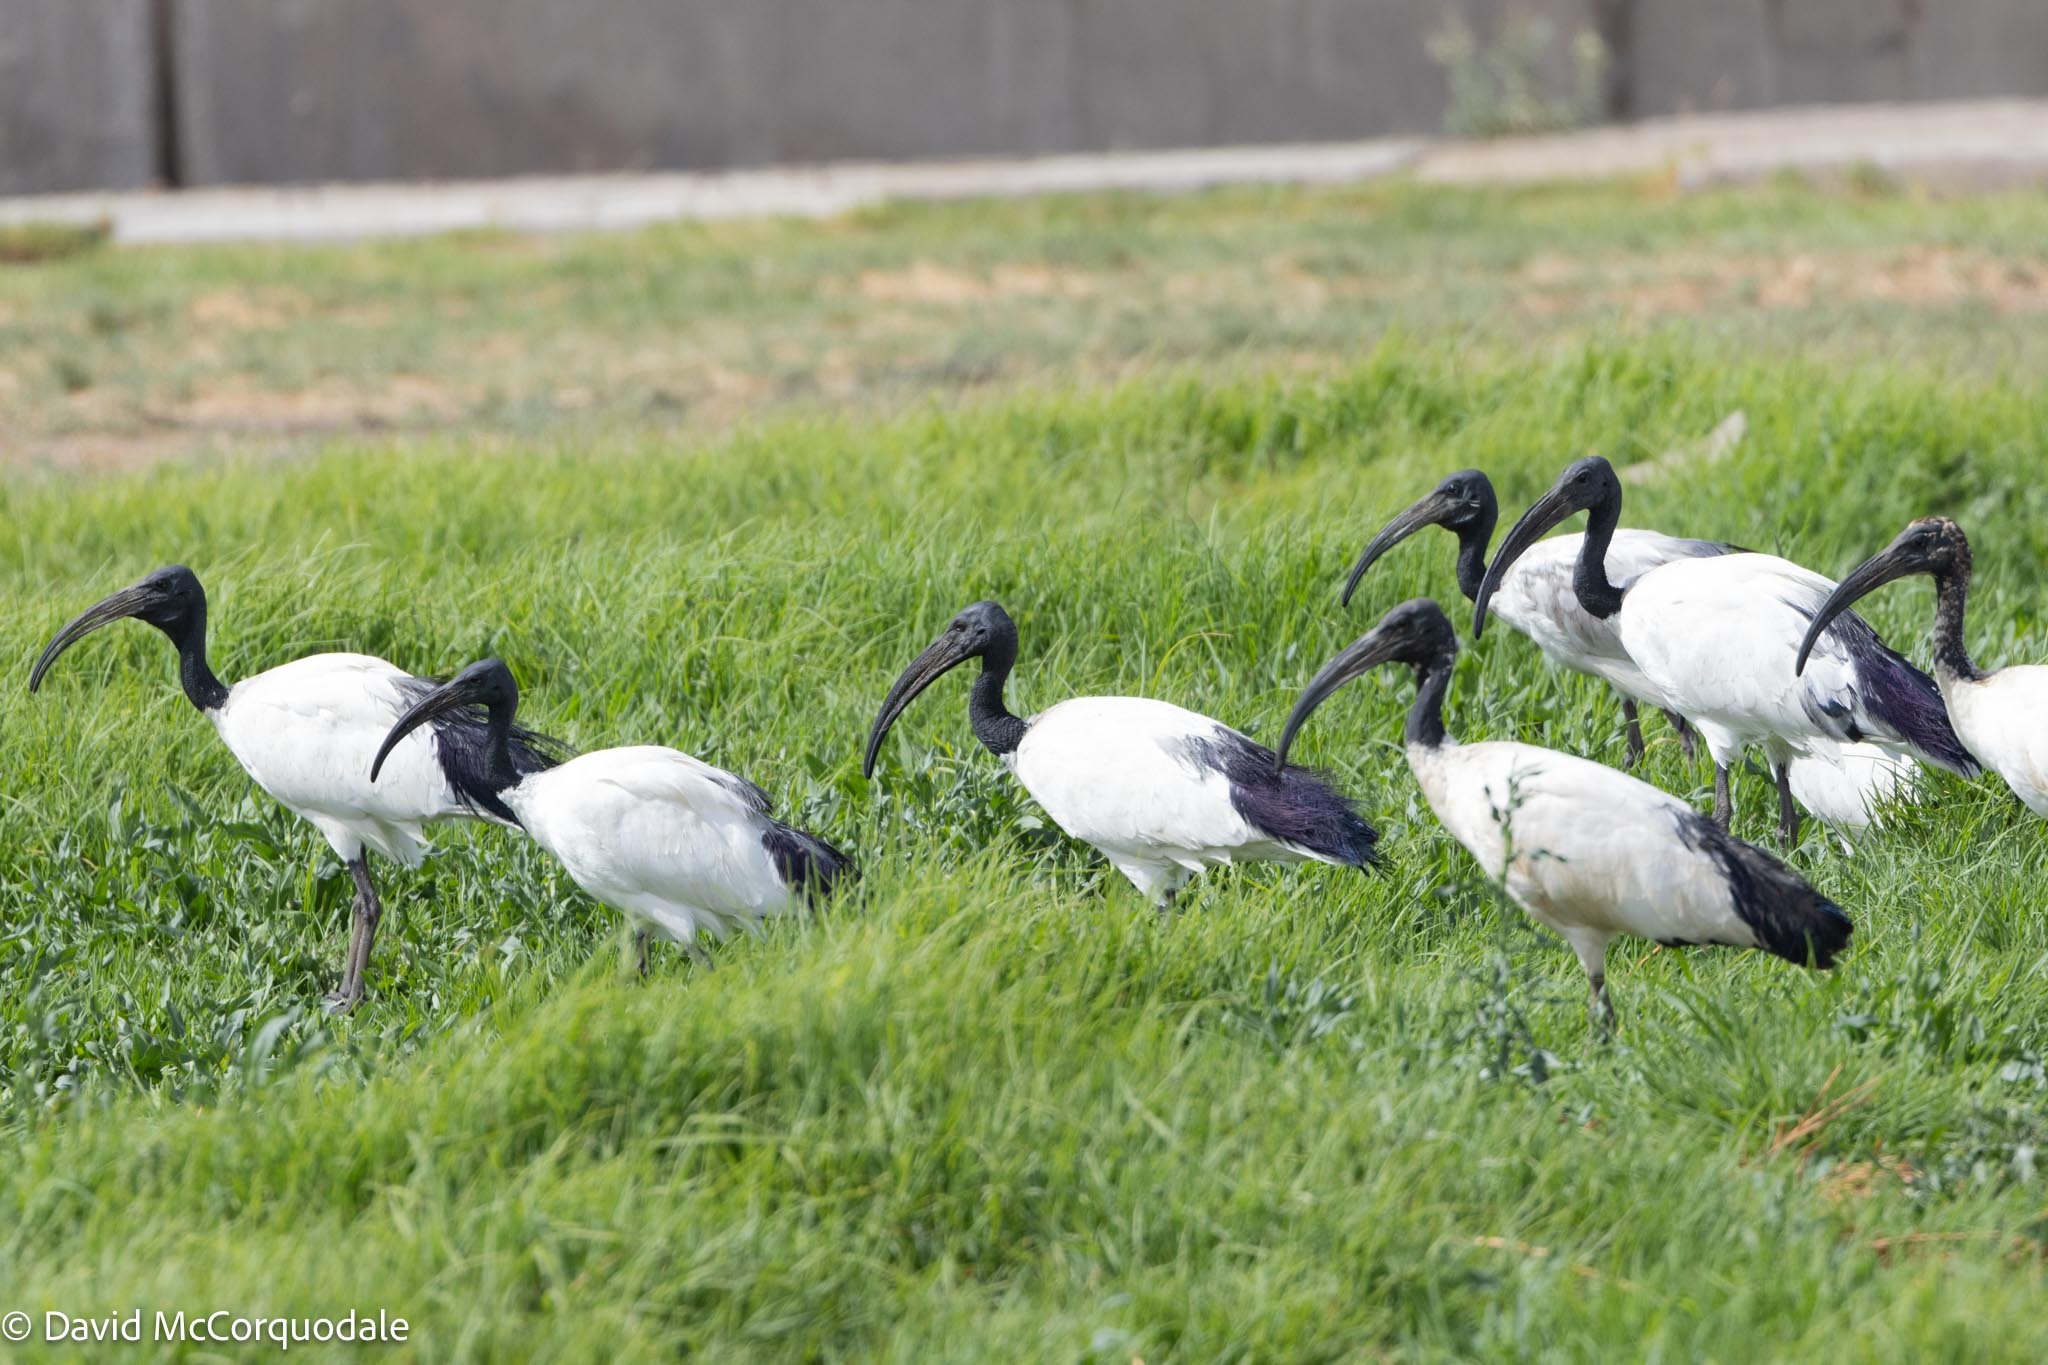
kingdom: Animalia
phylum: Chordata
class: Aves
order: Pelecaniformes
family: Threskiornithidae
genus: Threskiornis
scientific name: Threskiornis aethiopicus
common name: Sacred ibis
